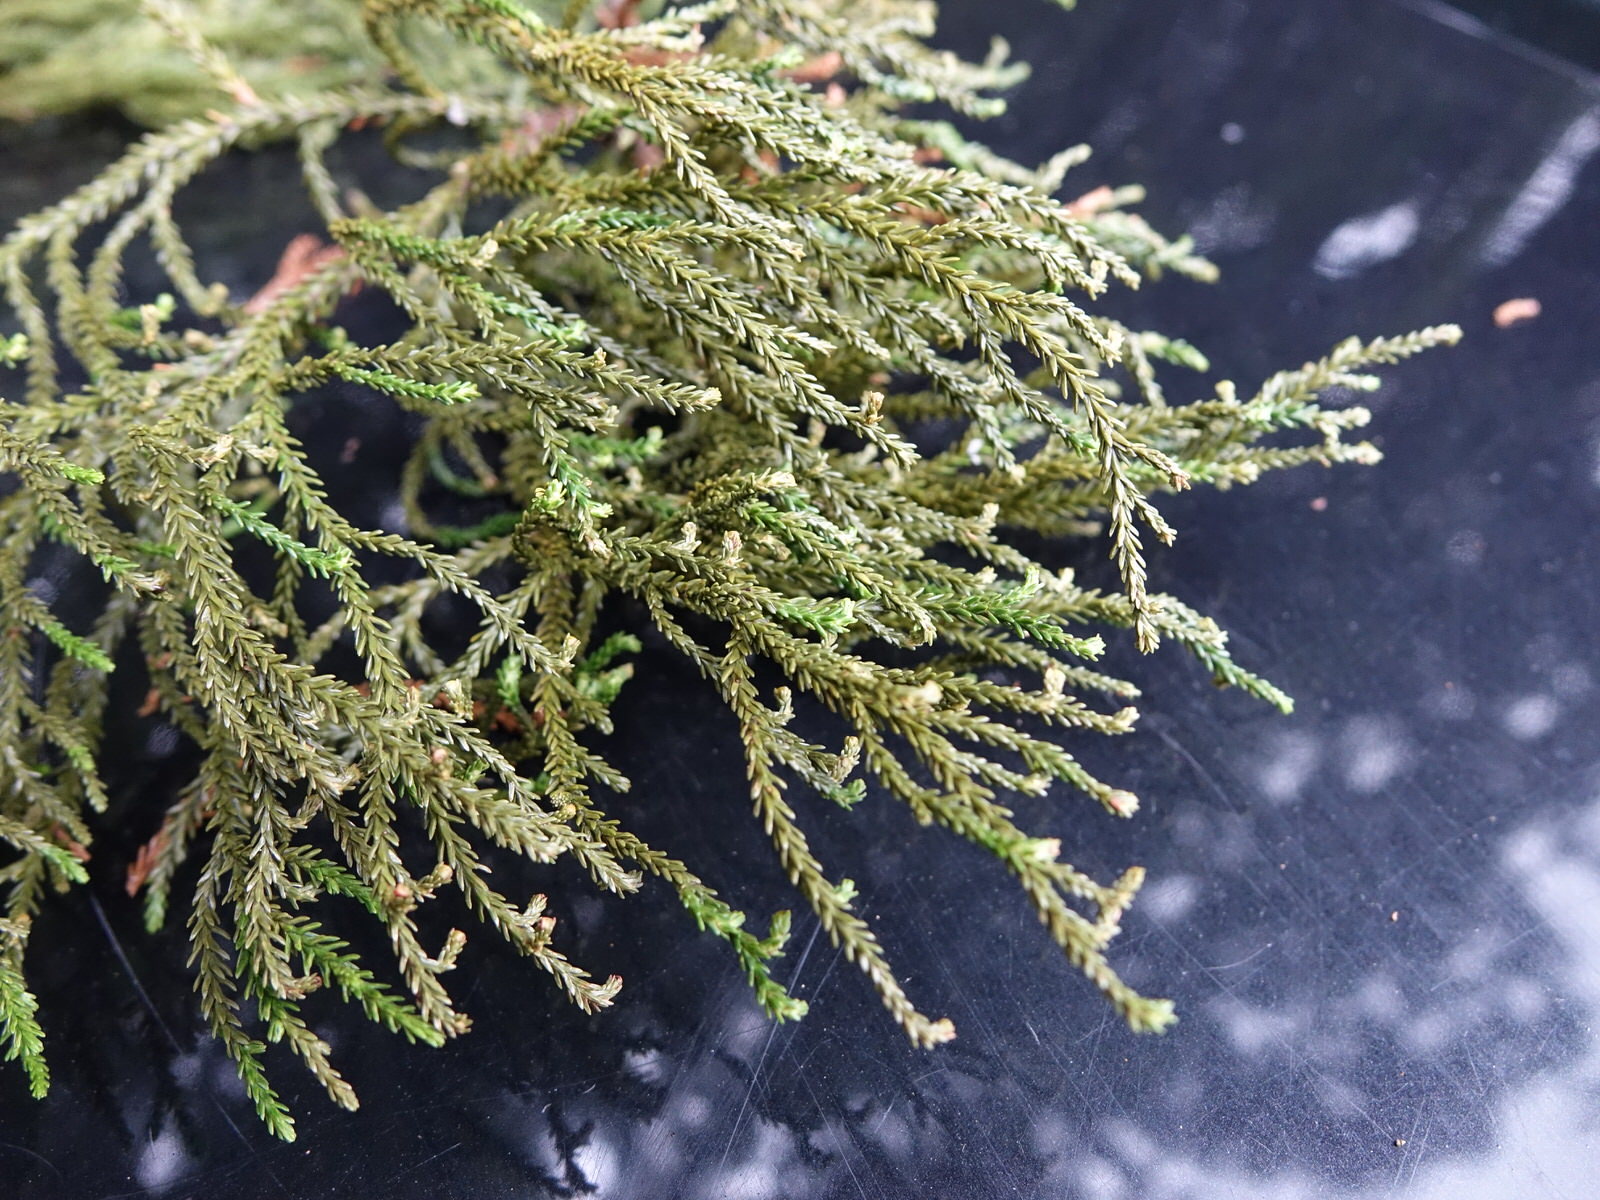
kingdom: Plantae
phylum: Tracheophyta
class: Pinopsida
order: Pinales
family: Podocarpaceae
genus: Dacrydium
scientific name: Dacrydium cupressinum
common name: Red pine
